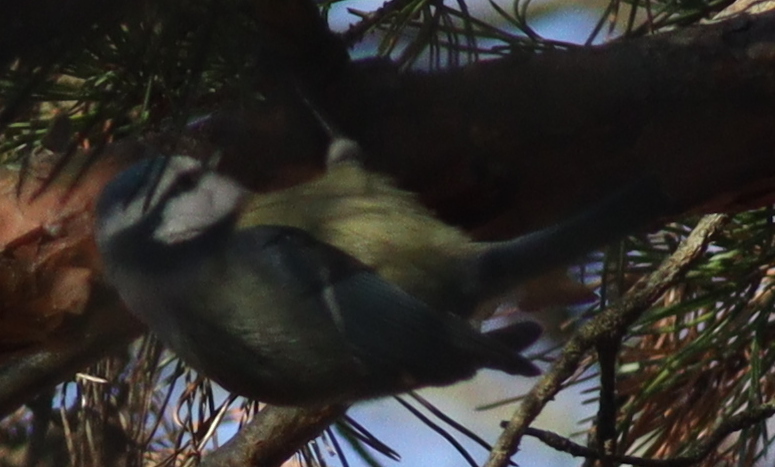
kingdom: Animalia
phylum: Chordata
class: Aves
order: Passeriformes
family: Paridae
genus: Cyanistes
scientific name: Cyanistes caeruleus
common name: Eurasian blue tit
